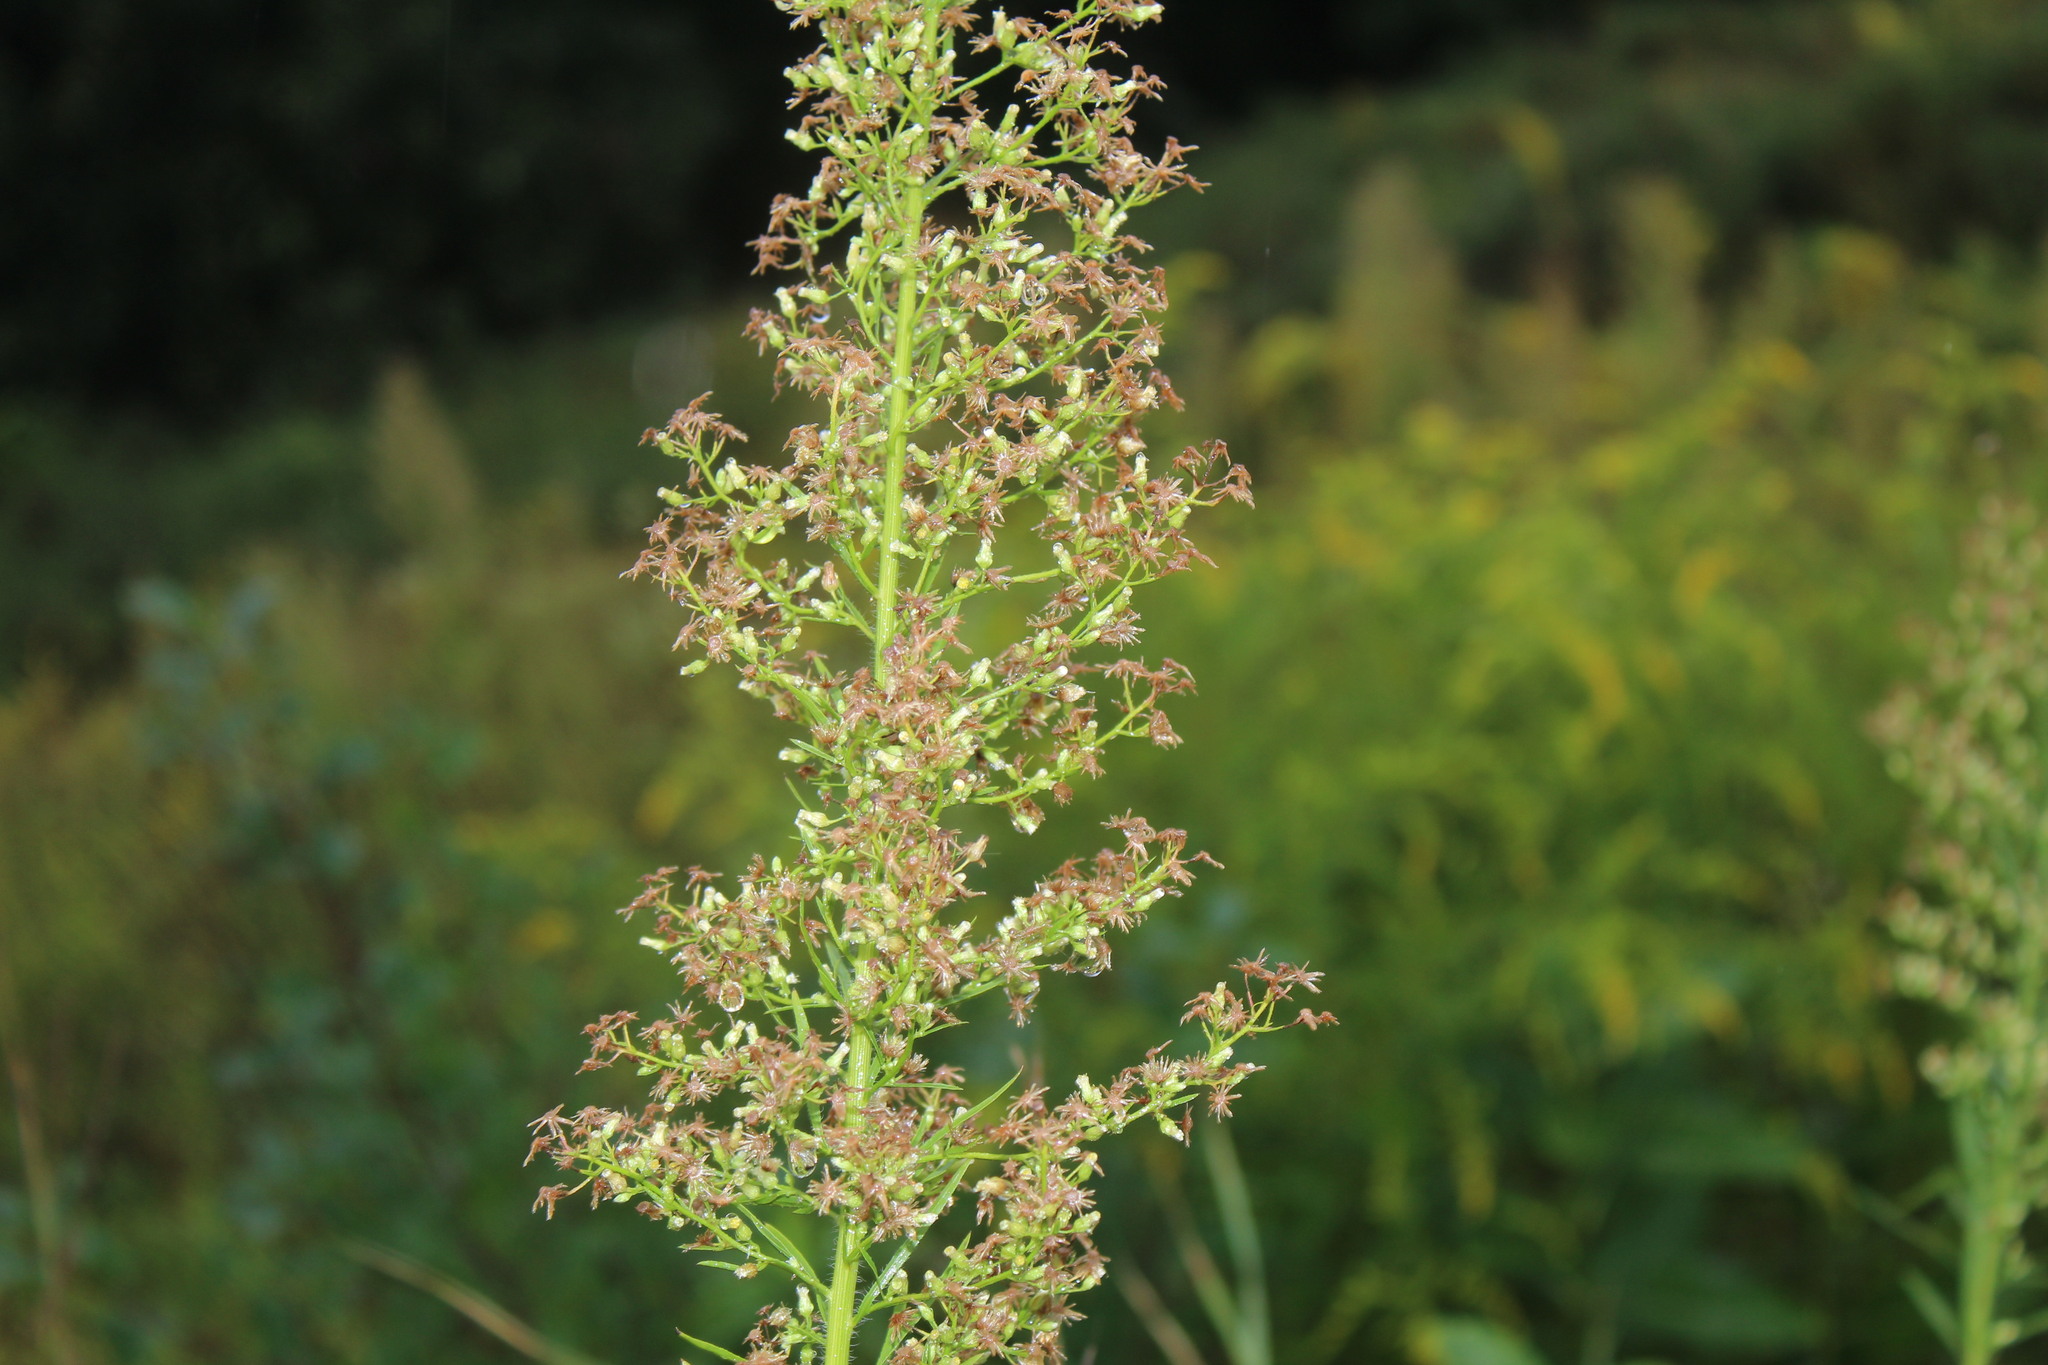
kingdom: Plantae
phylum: Tracheophyta
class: Magnoliopsida
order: Asterales
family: Asteraceae
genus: Erigeron
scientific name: Erigeron canadensis
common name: Canadian fleabane
